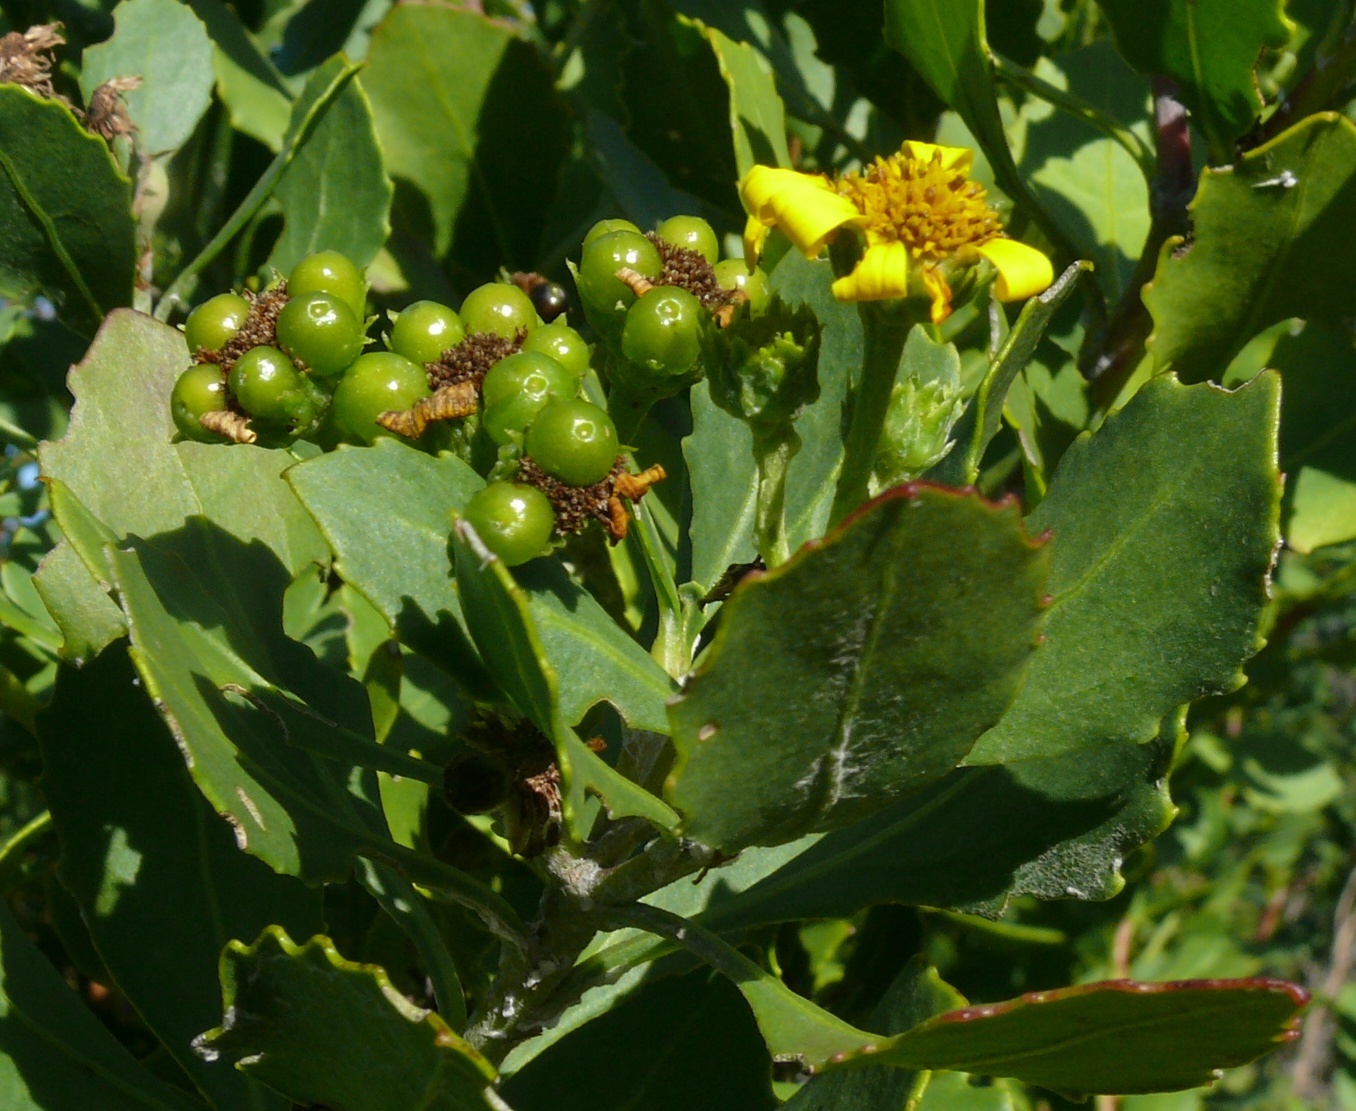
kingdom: Plantae
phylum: Tracheophyta
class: Magnoliopsida
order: Asterales
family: Asteraceae
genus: Osteospermum
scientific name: Osteospermum moniliferum
